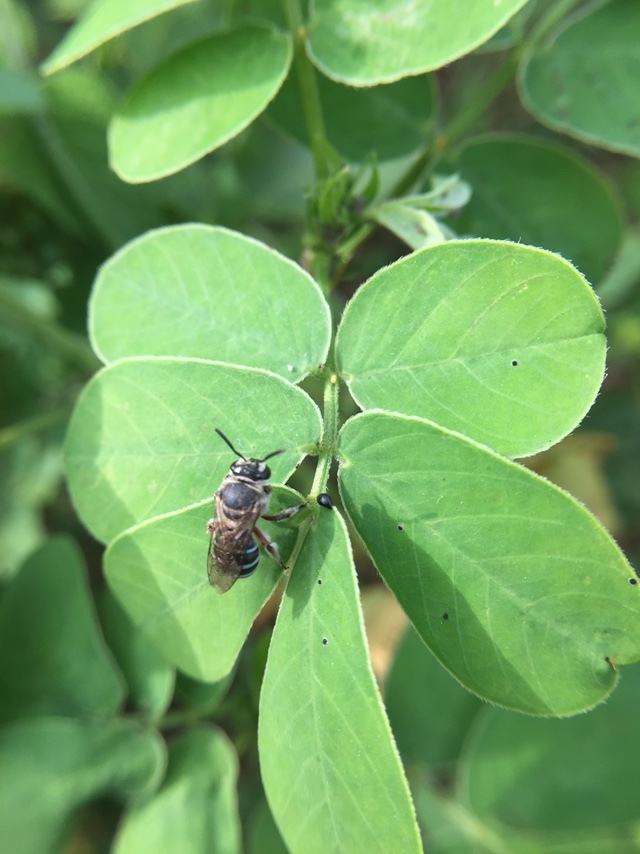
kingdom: Animalia
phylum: Arthropoda
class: Insecta
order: Hymenoptera
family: Halictidae
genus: Nomia
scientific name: Nomia westwoodi
